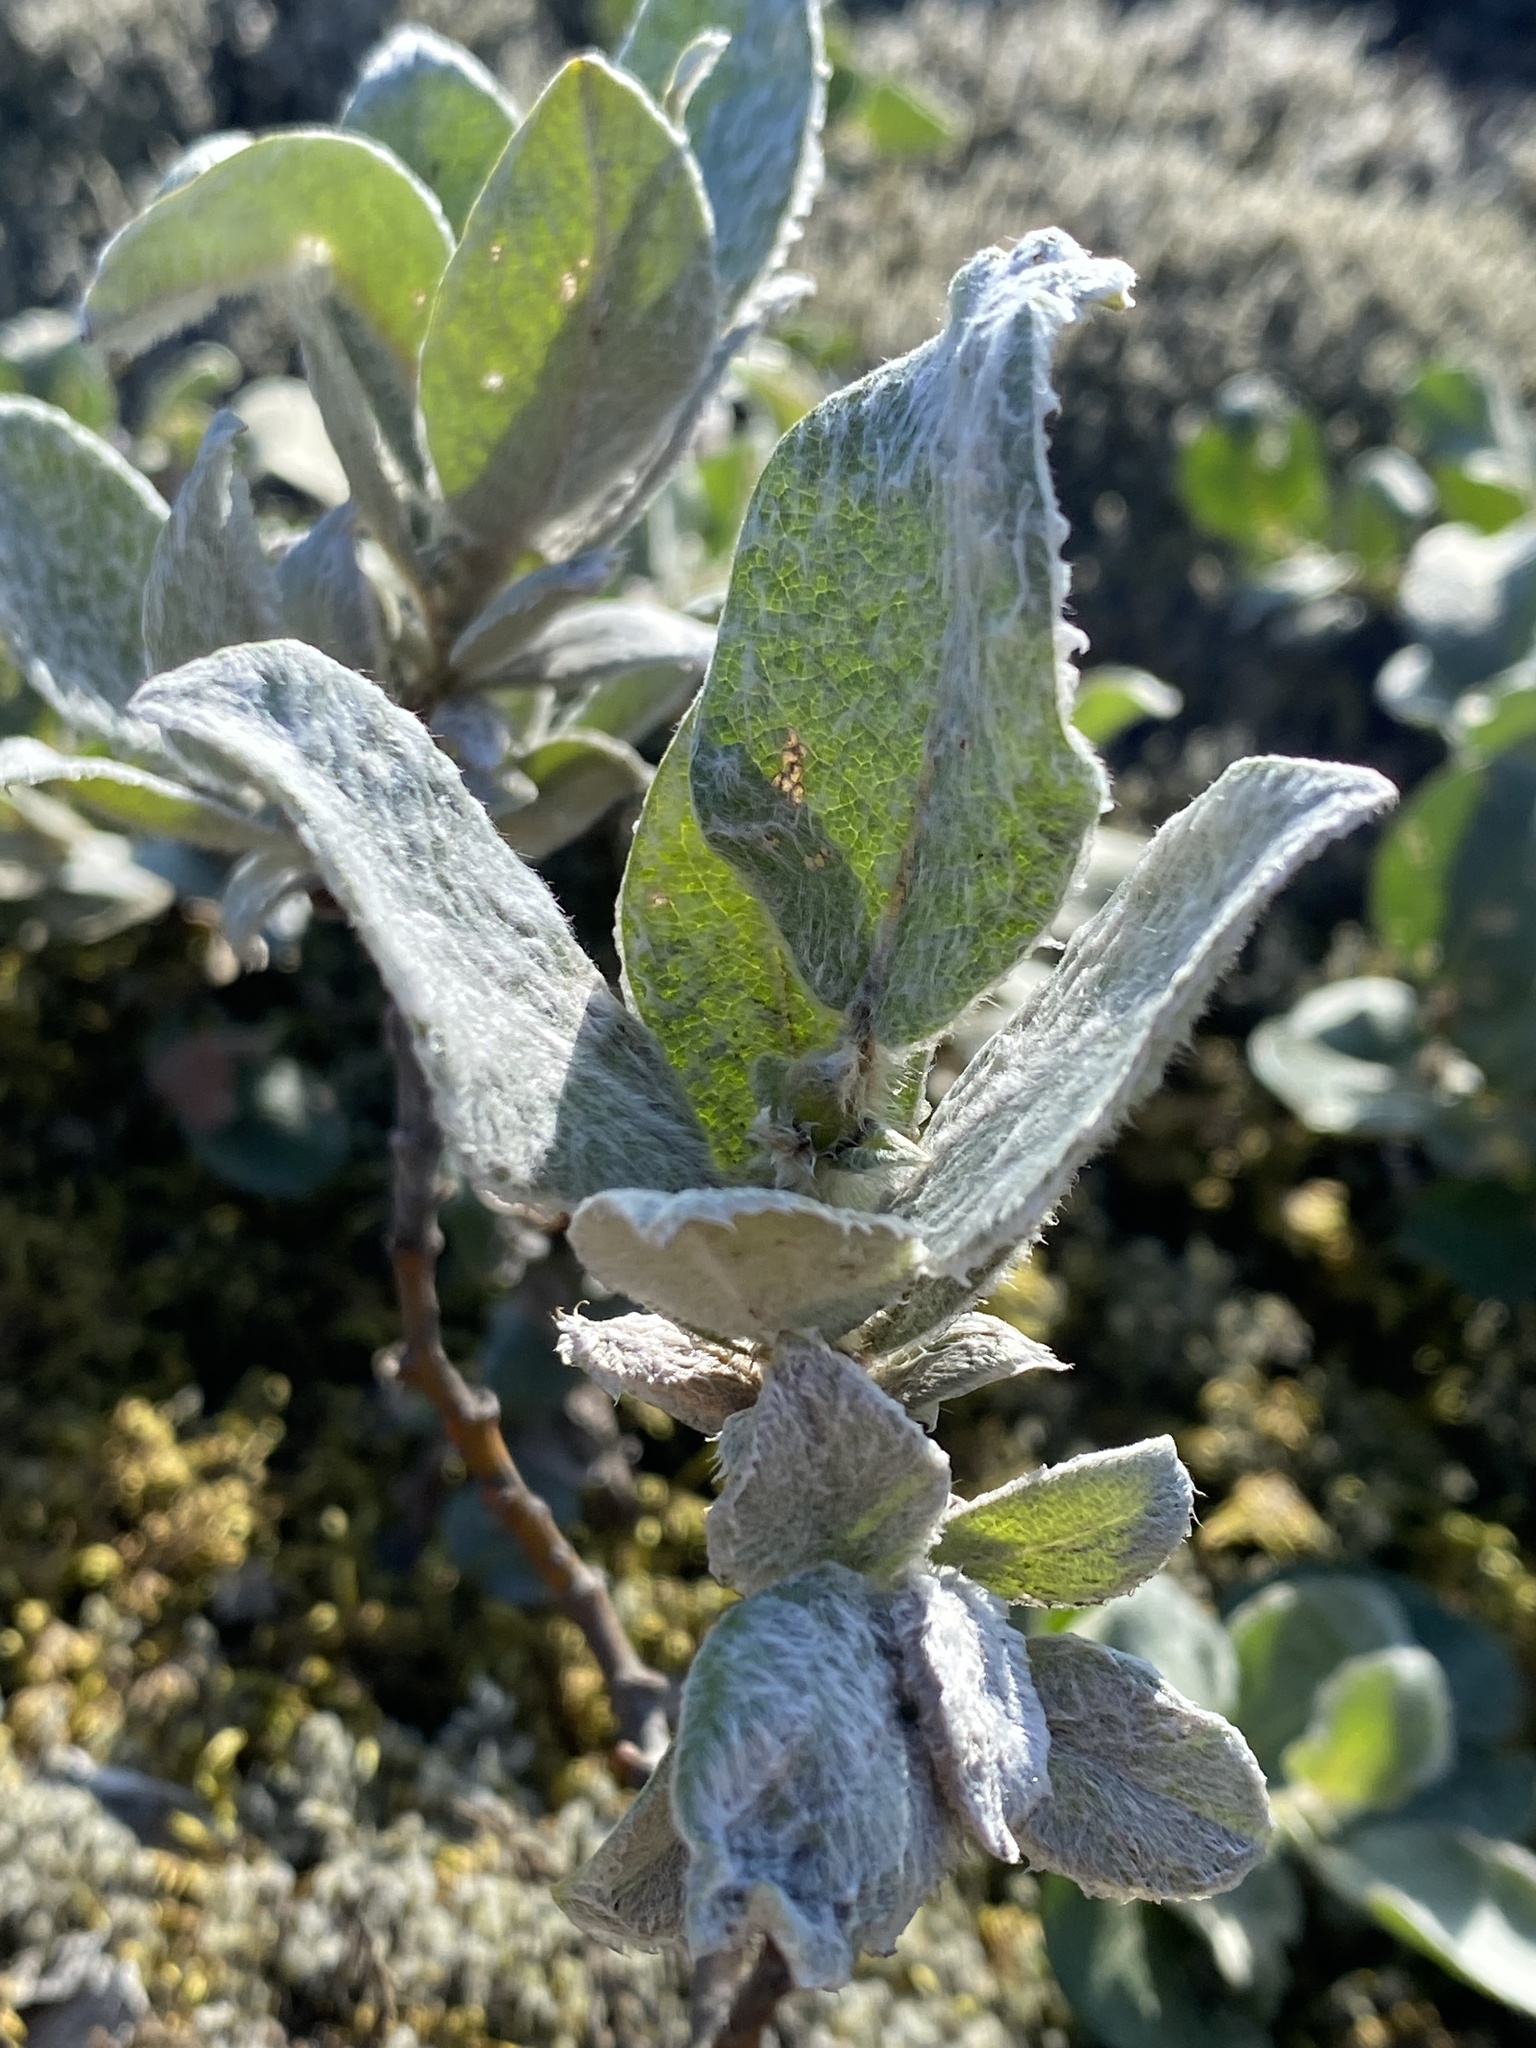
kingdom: Plantae
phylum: Tracheophyta
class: Magnoliopsida
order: Malpighiales
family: Salicaceae
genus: Salix
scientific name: Salix lanata
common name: Woolly willow
